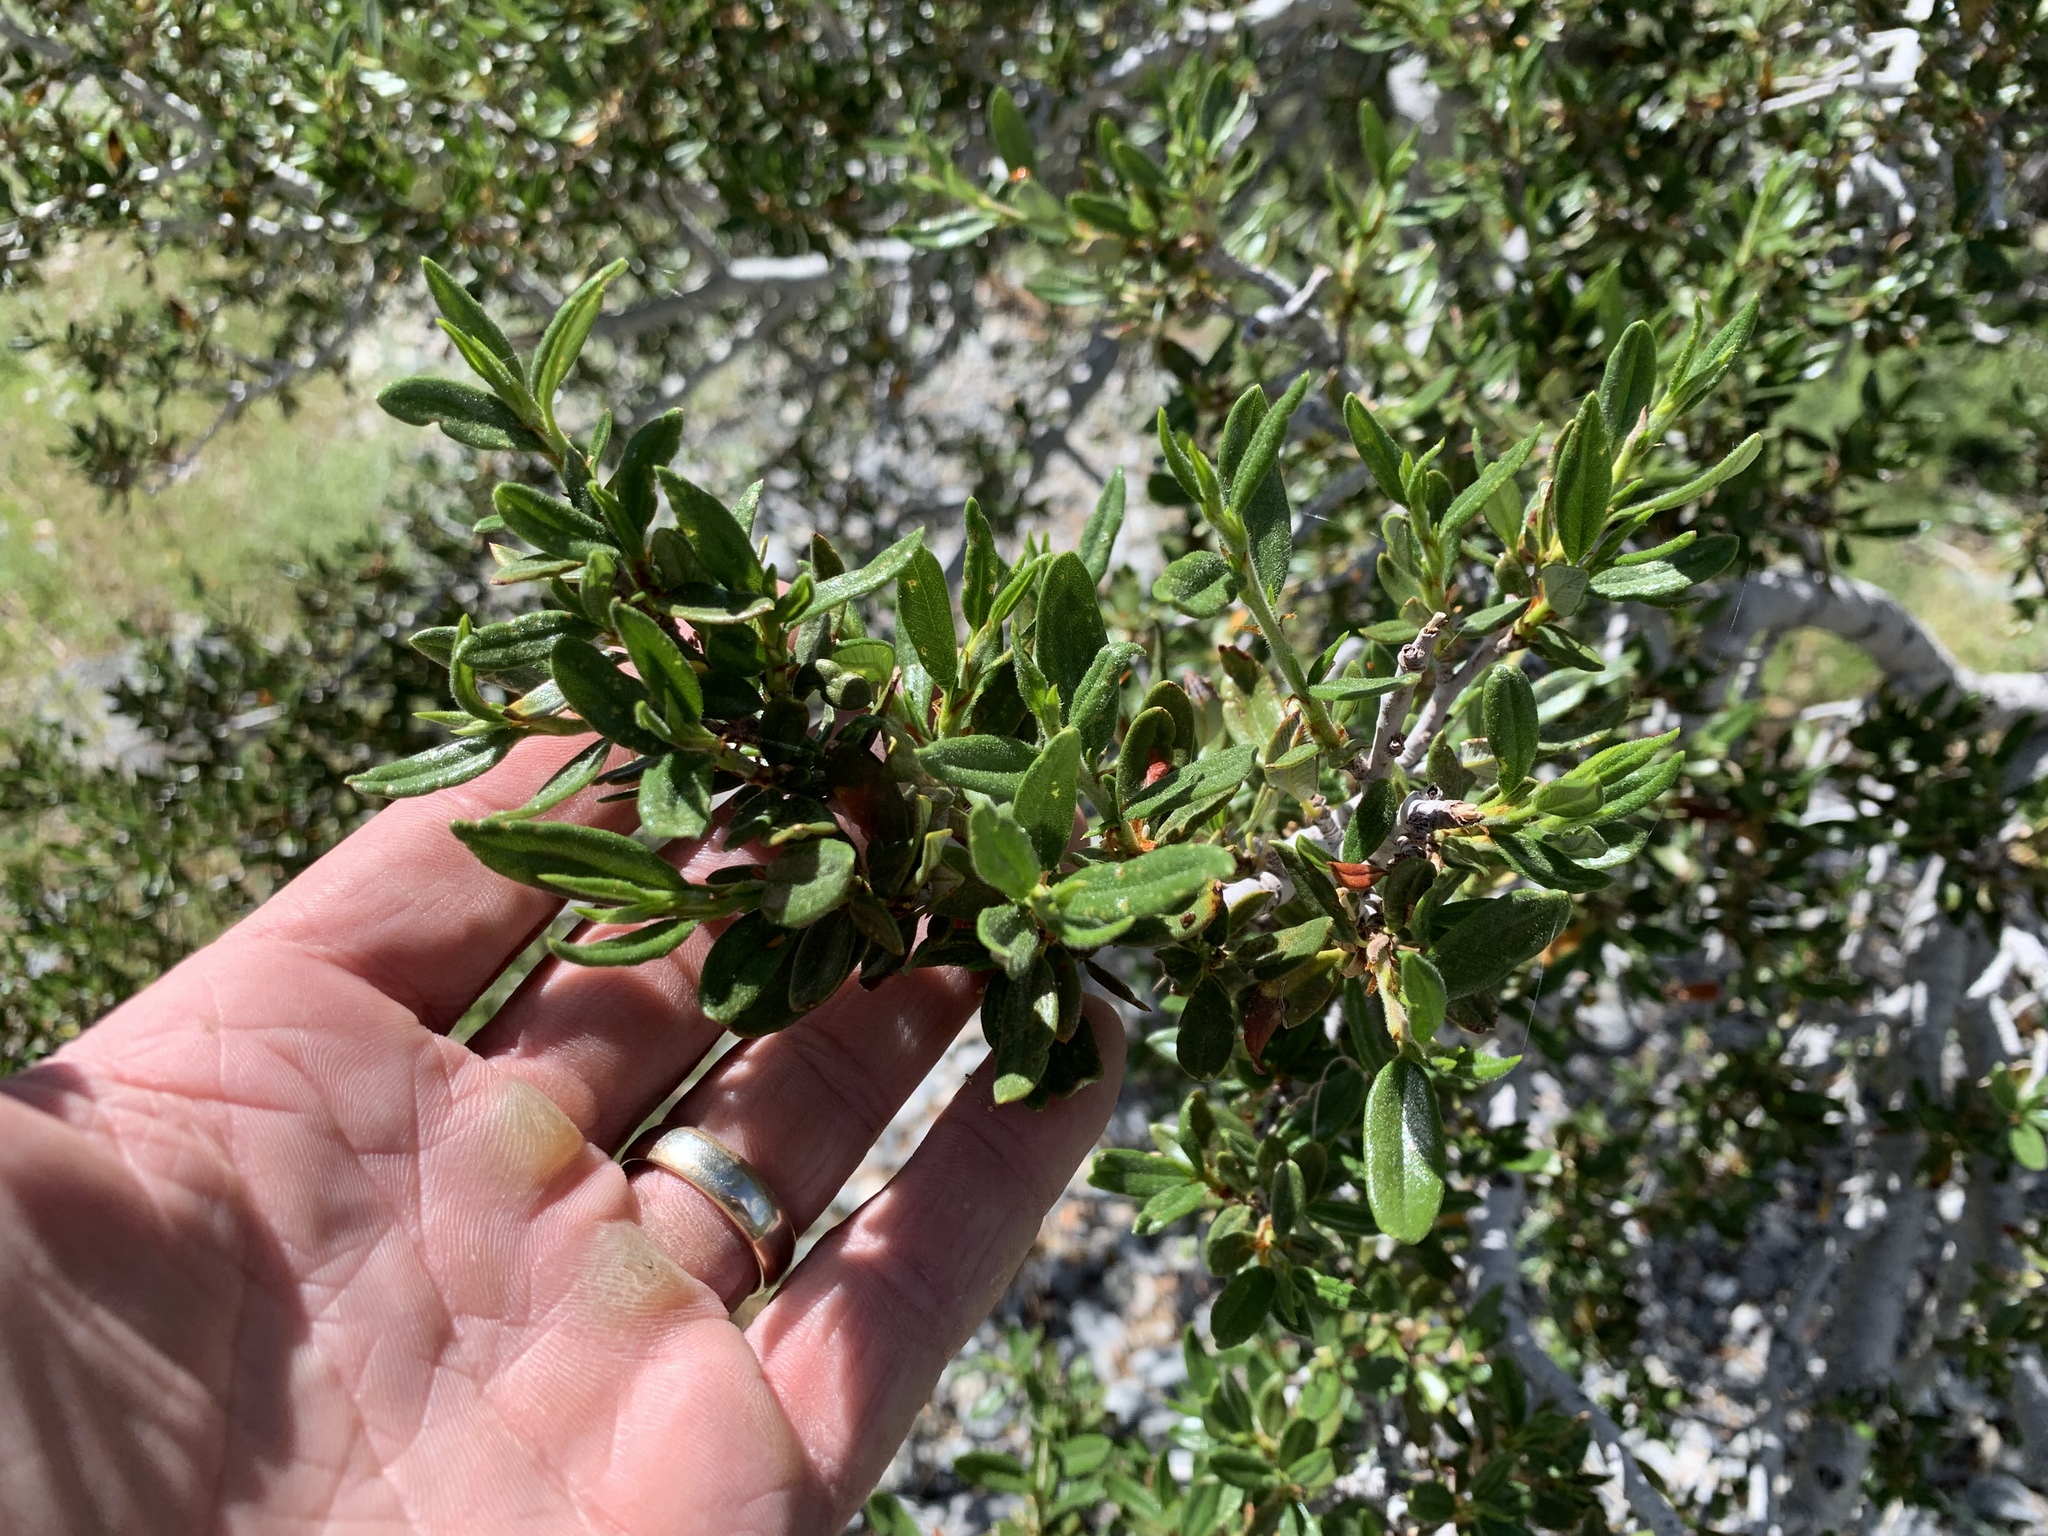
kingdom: Plantae
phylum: Tracheophyta
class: Magnoliopsida
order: Rosales
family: Rosaceae
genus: Cercocarpus
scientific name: Cercocarpus ledifolius
